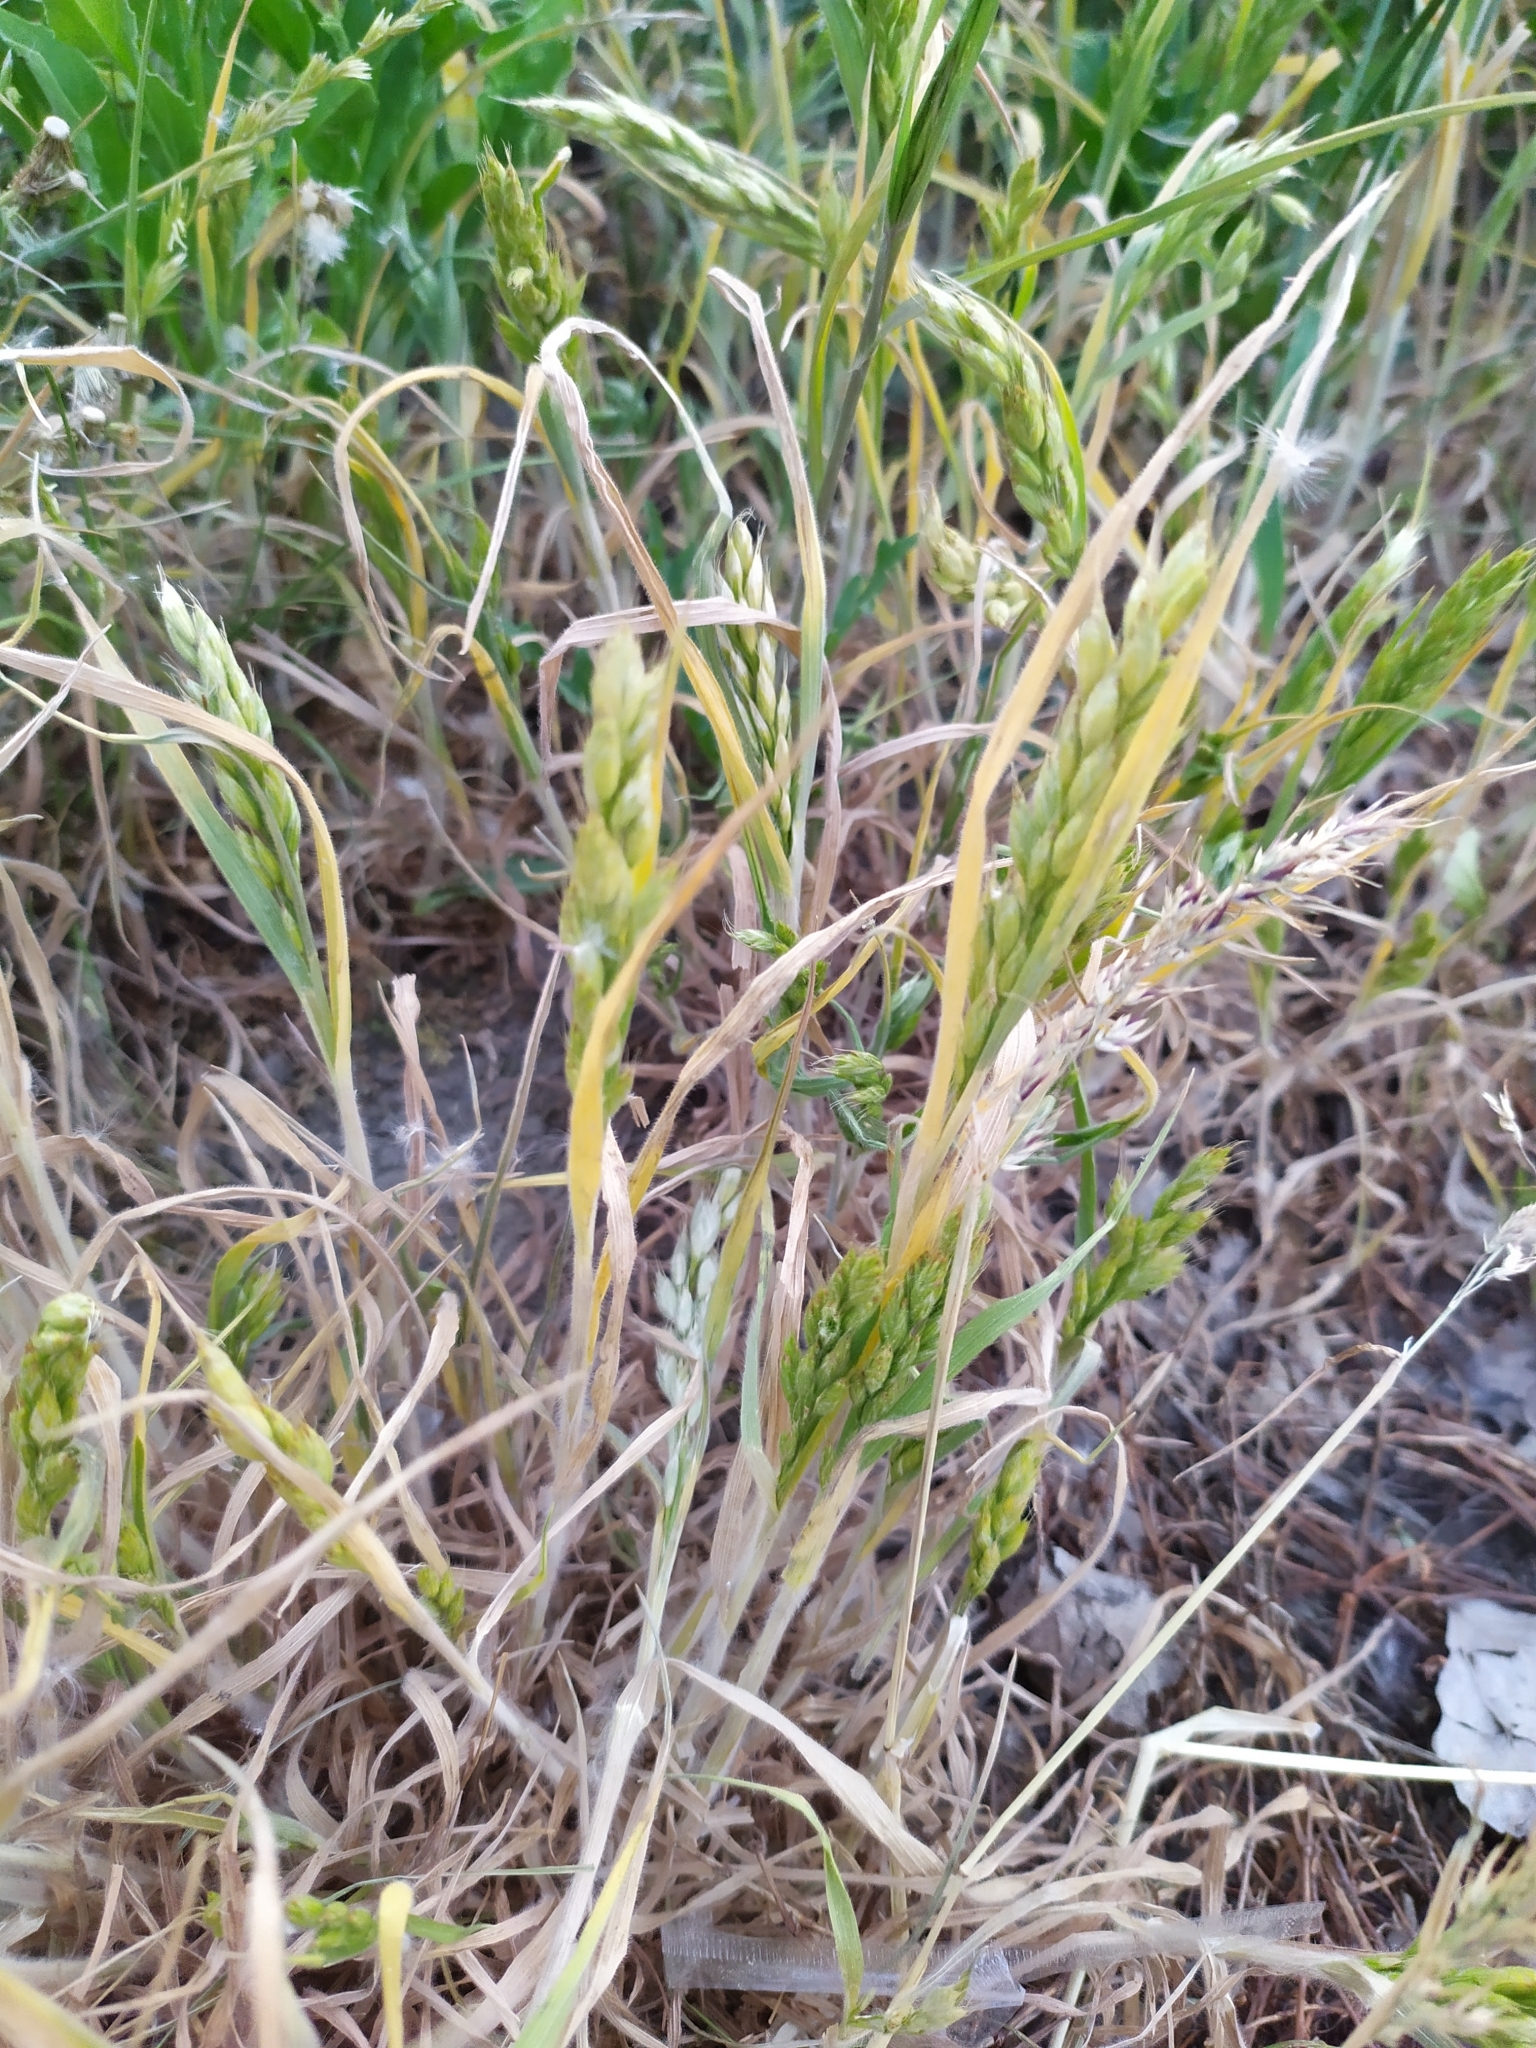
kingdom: Plantae
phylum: Tracheophyta
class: Liliopsida
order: Poales
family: Poaceae
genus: Bromus
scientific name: Bromus hordeaceus
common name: Soft brome
